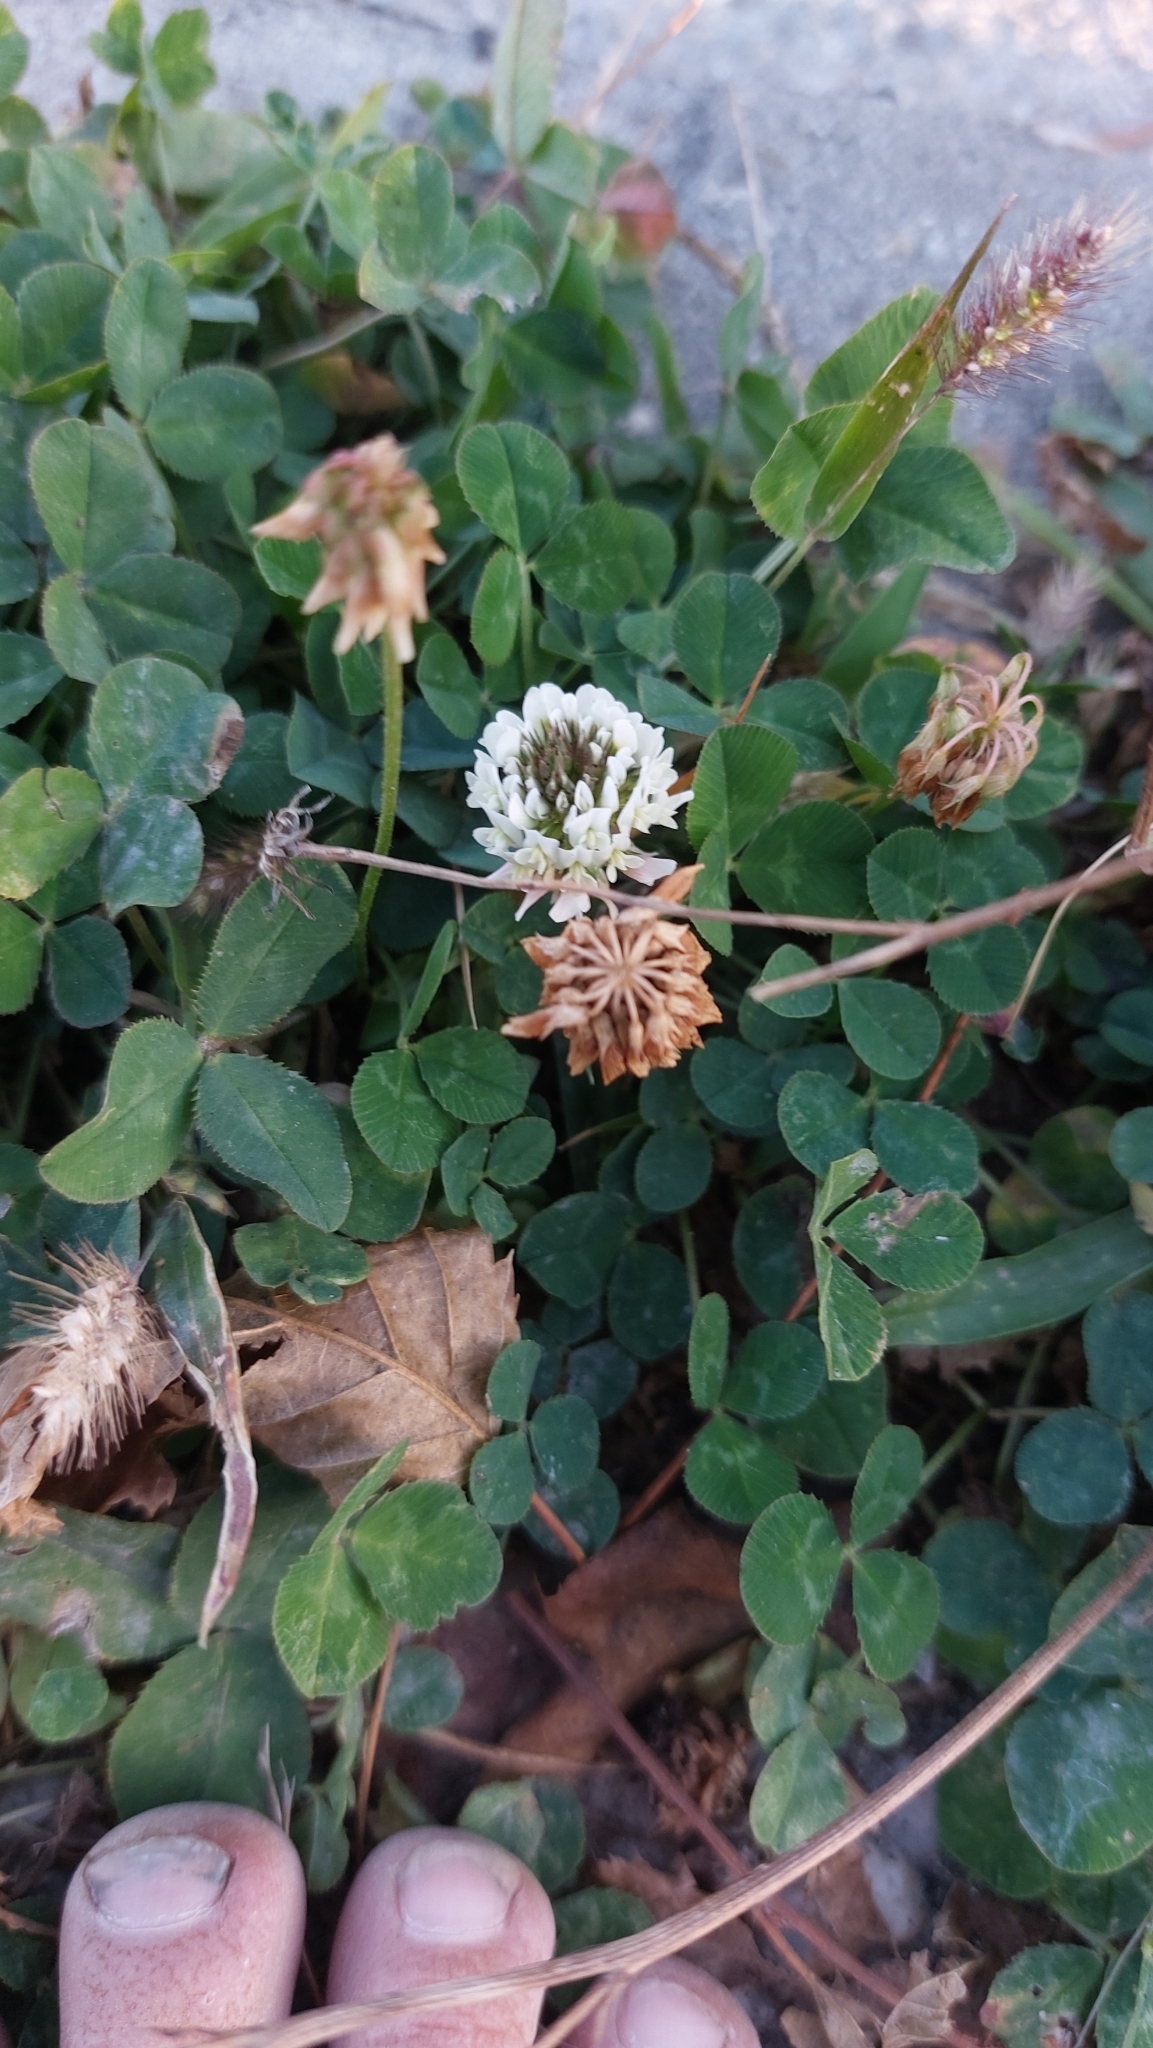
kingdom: Plantae
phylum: Tracheophyta
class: Magnoliopsida
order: Fabales
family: Fabaceae
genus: Trifolium
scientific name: Trifolium repens
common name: White clover
